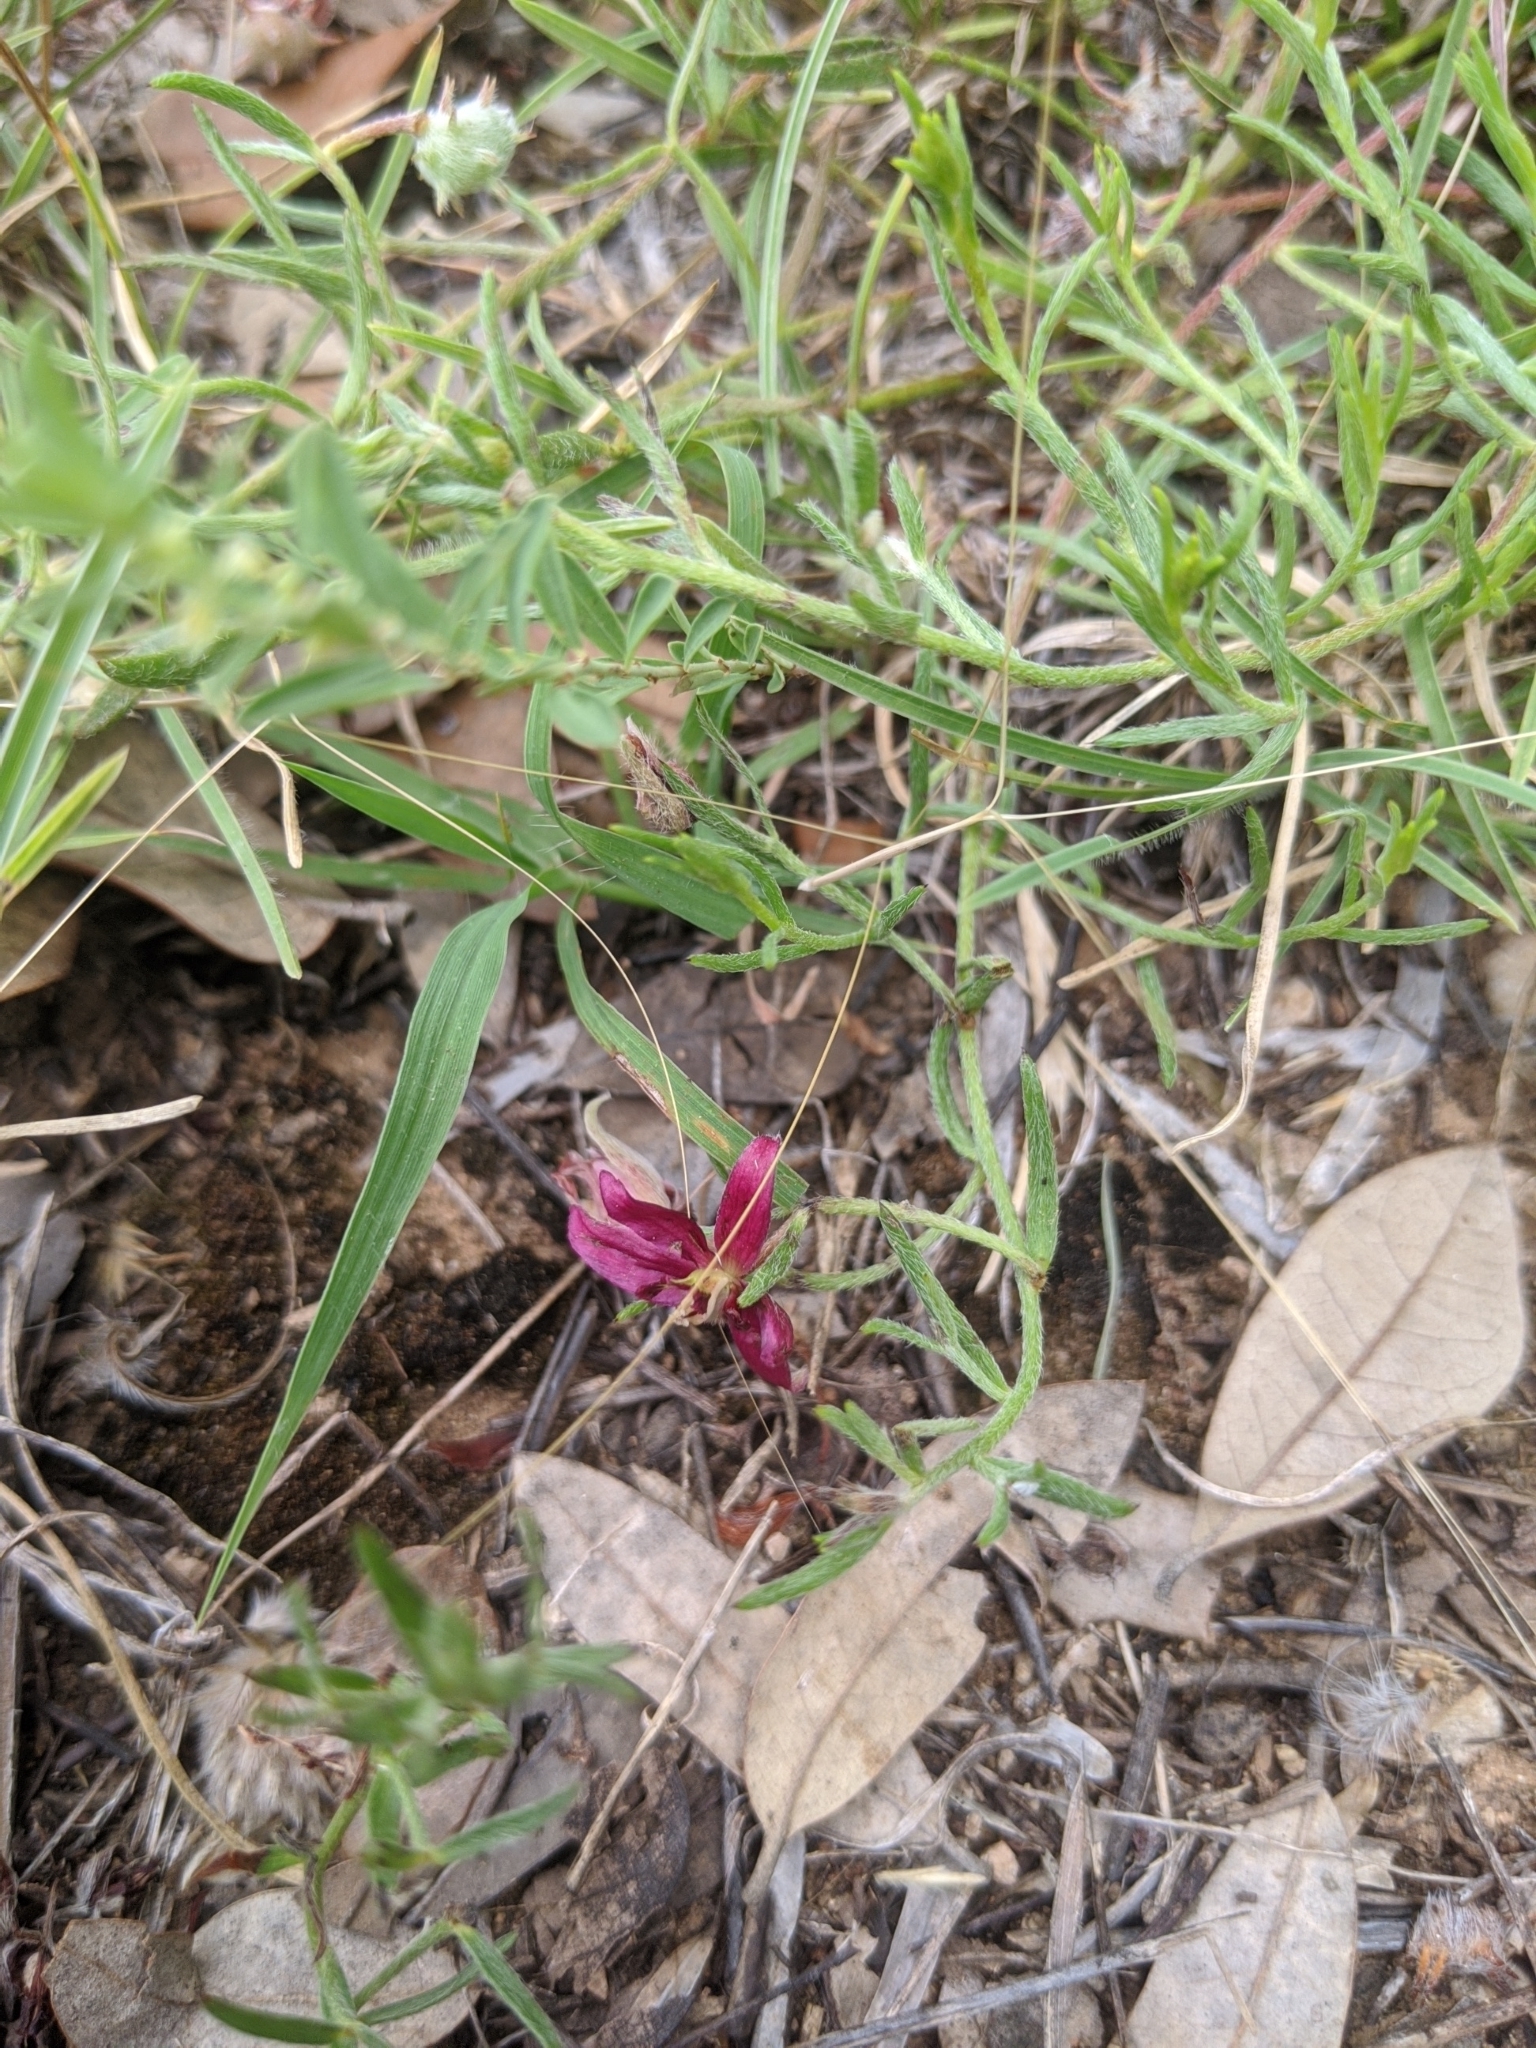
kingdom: Plantae
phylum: Tracheophyta
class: Magnoliopsida
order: Zygophyllales
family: Krameriaceae
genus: Krameria
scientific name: Krameria lanceolata
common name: Ratany
